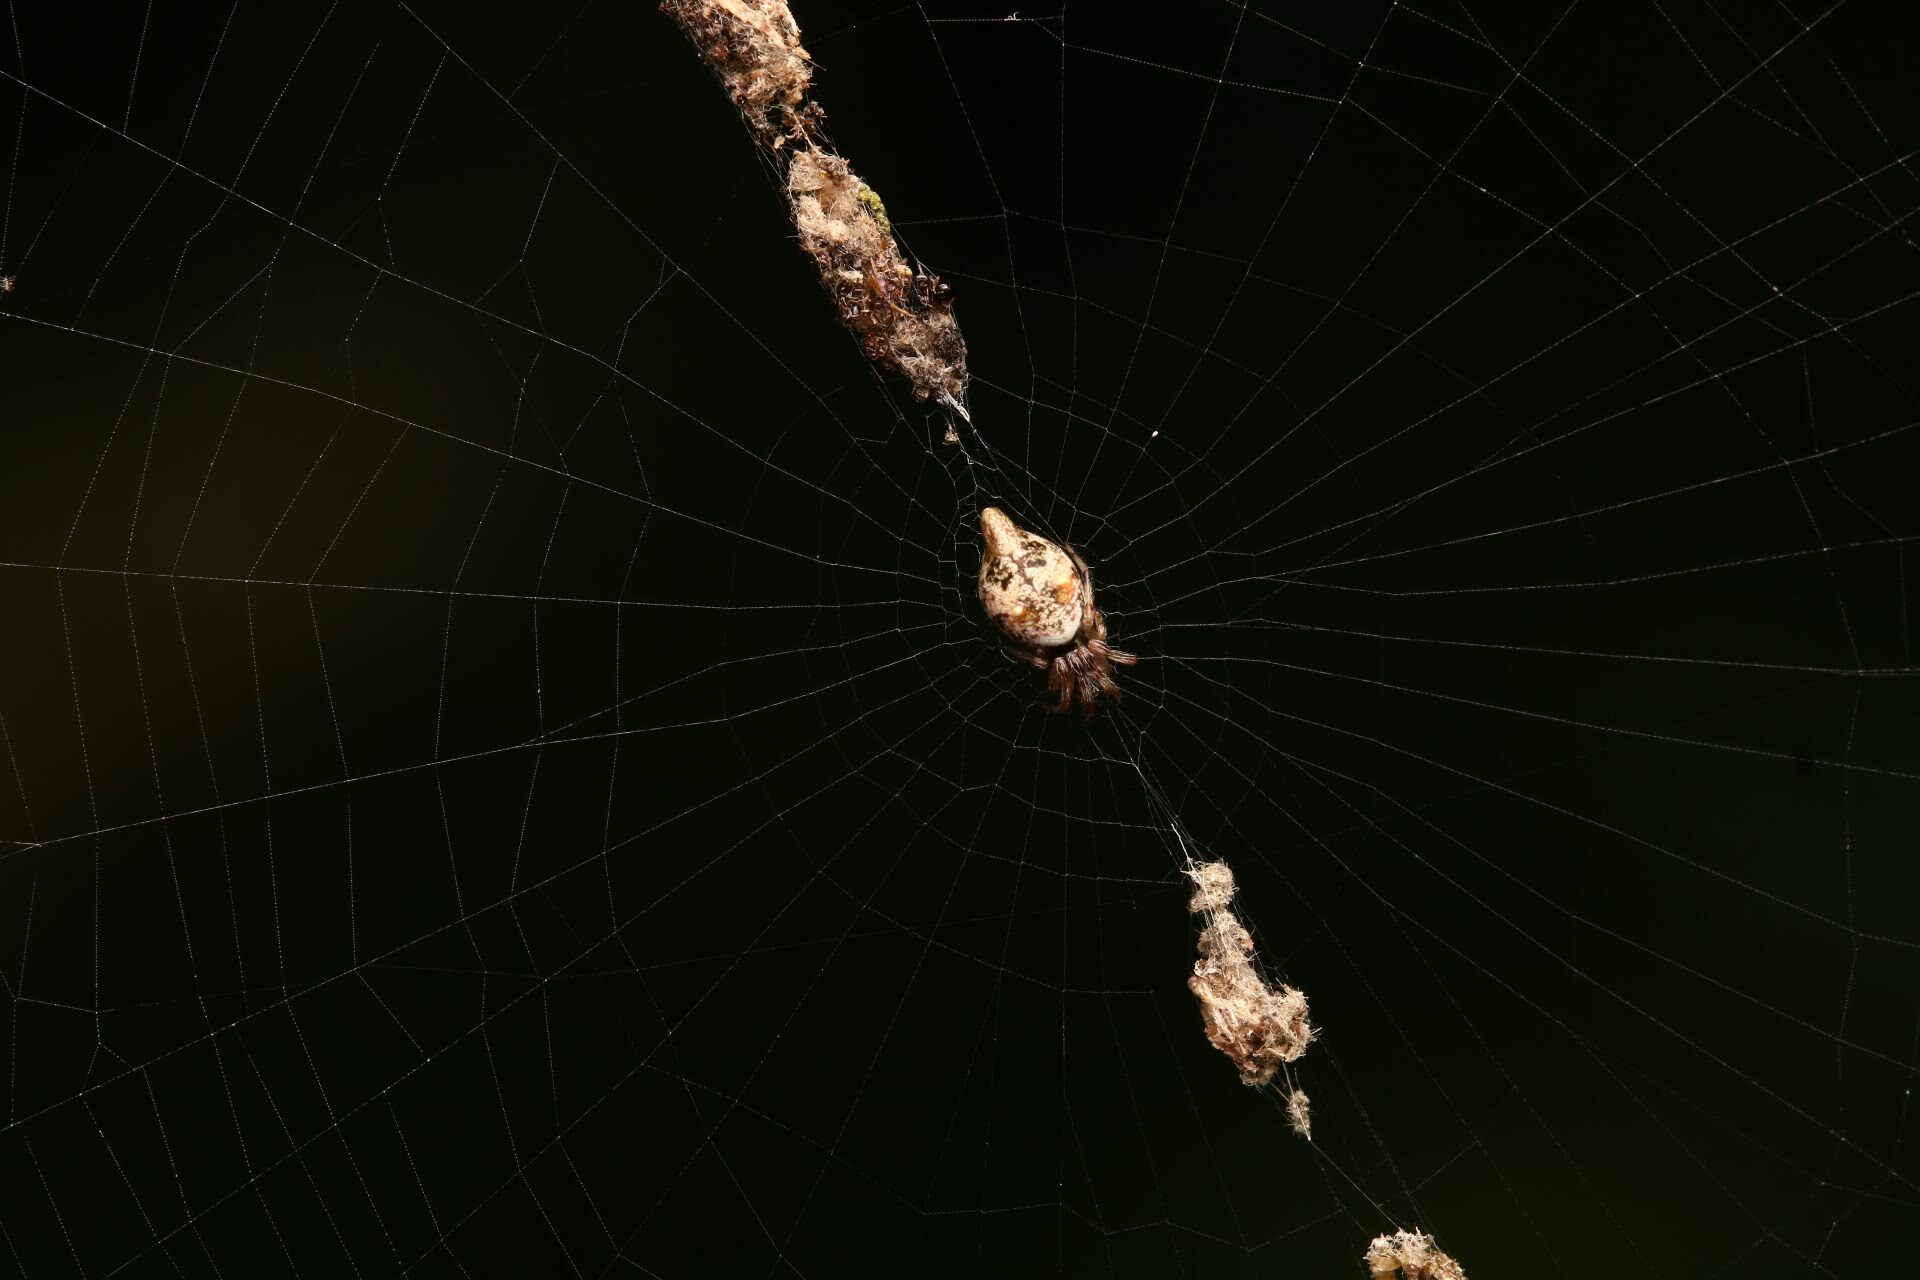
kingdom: Animalia
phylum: Arthropoda
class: Arachnida
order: Araneae
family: Araneidae
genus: Cyclosa
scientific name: Cyclosa turbinata
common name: Orb weavers
